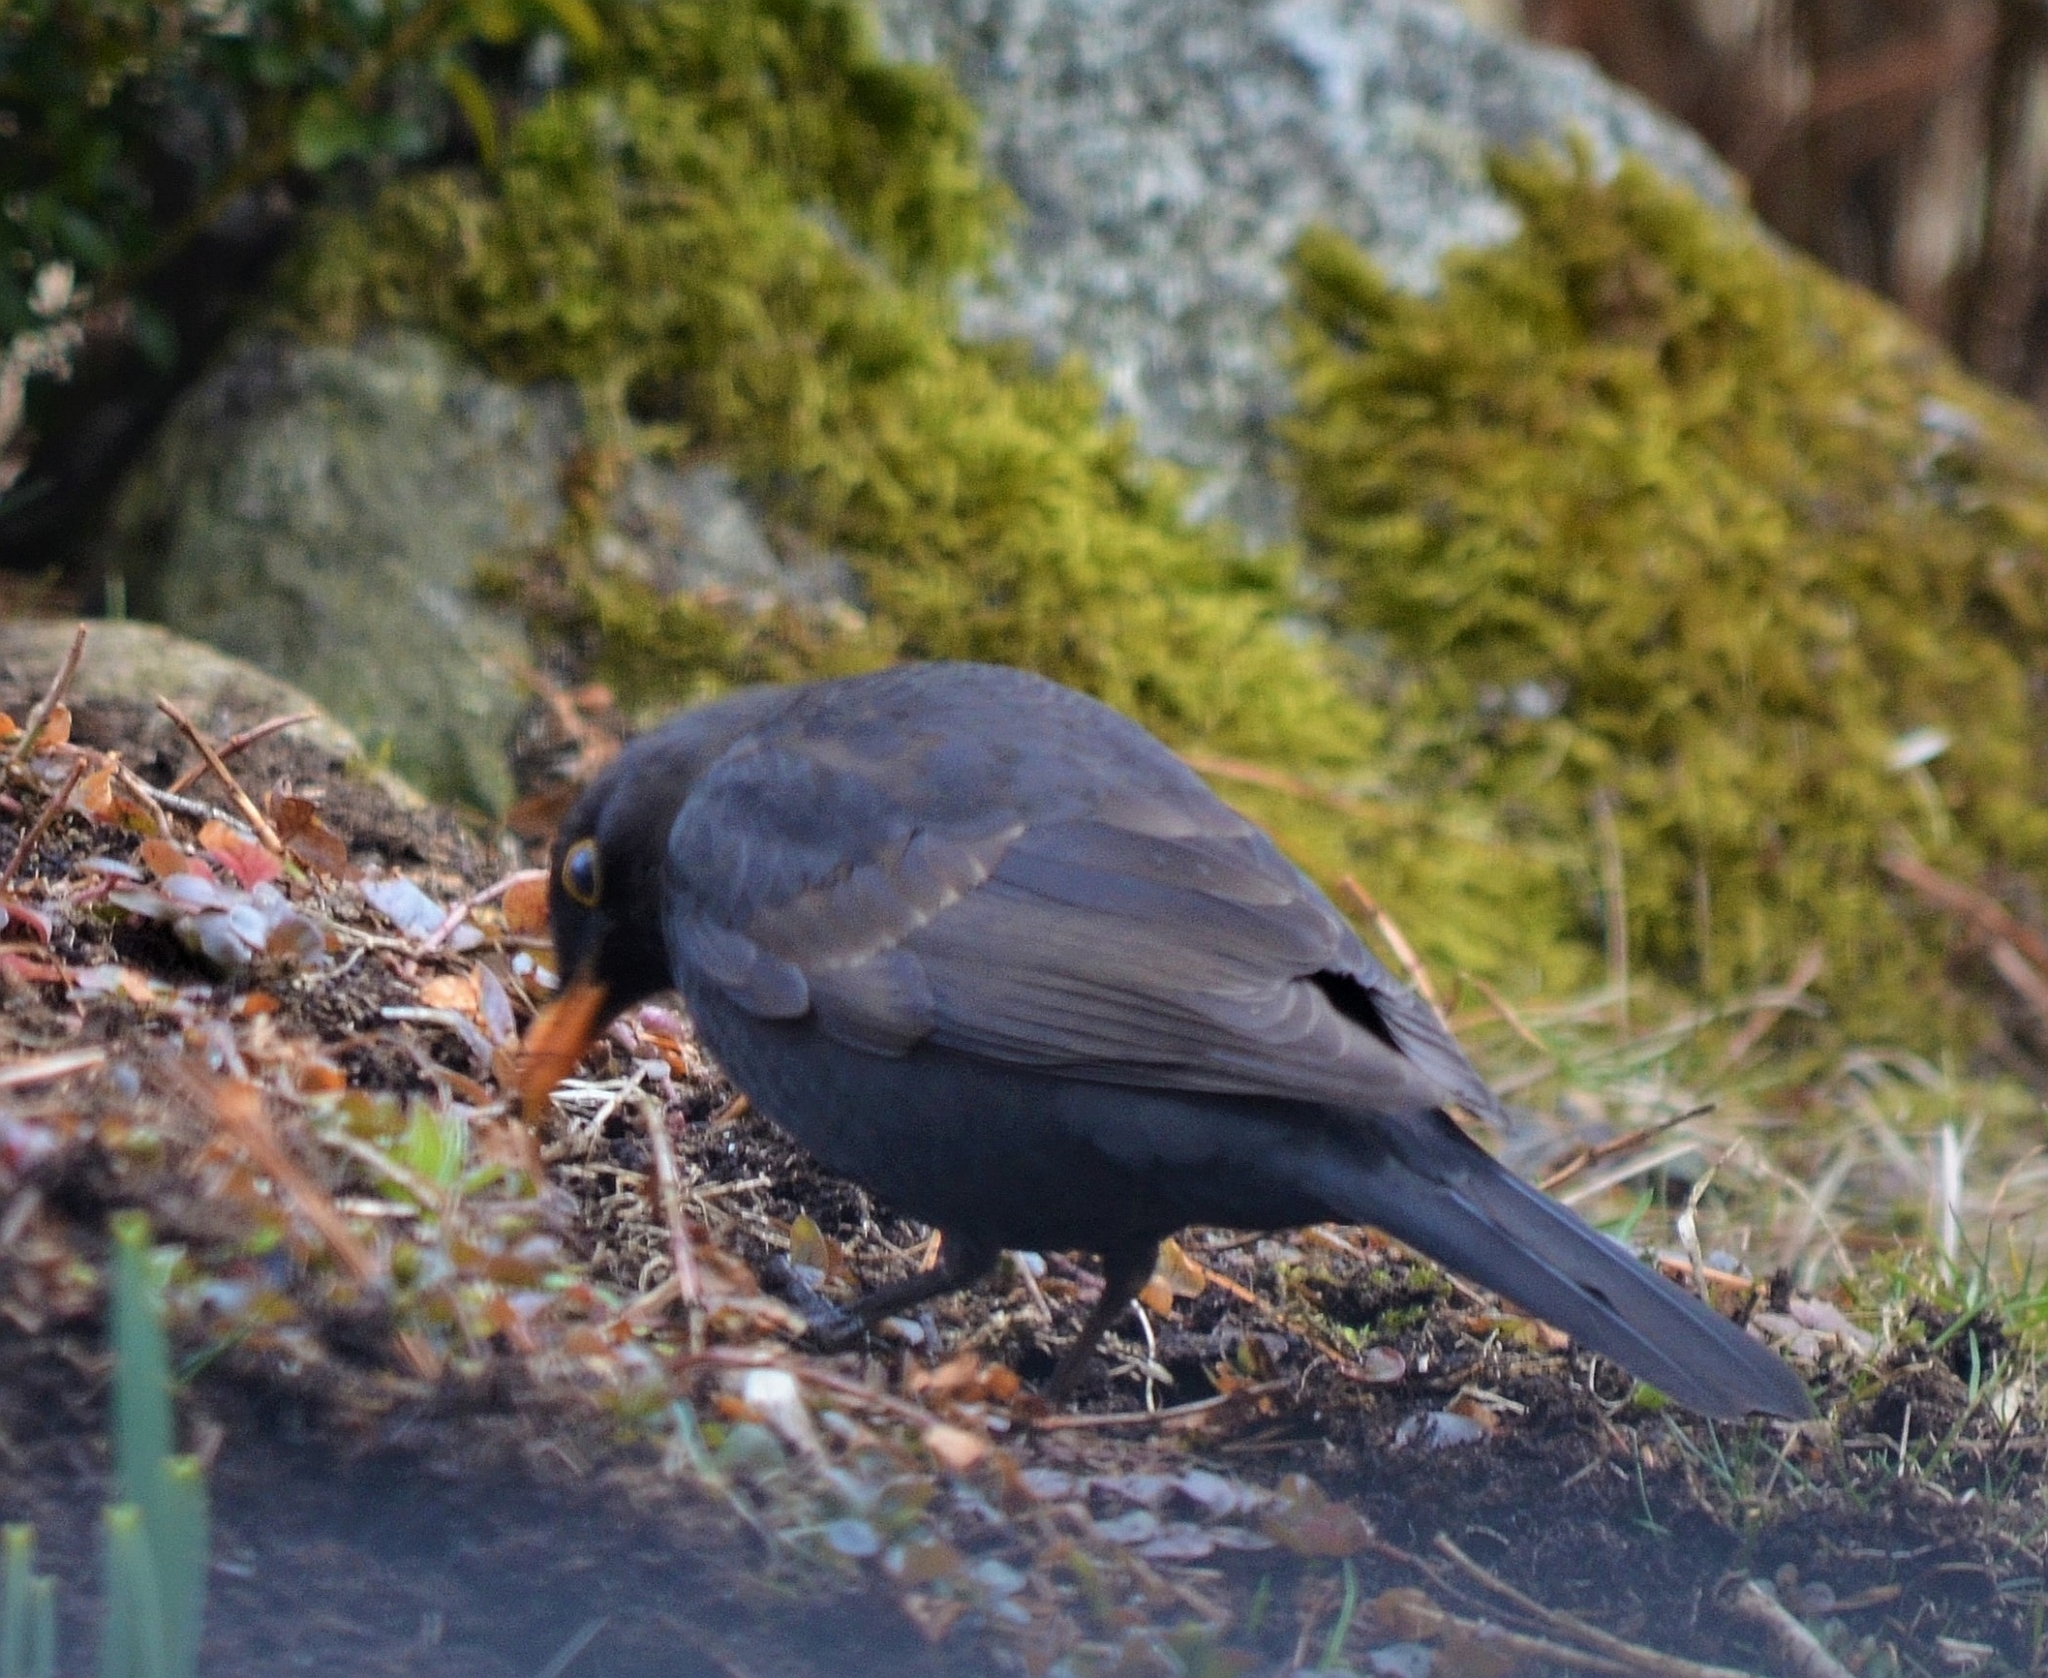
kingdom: Animalia
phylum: Chordata
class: Aves
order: Passeriformes
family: Turdidae
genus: Turdus
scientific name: Turdus merula
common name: Common blackbird
